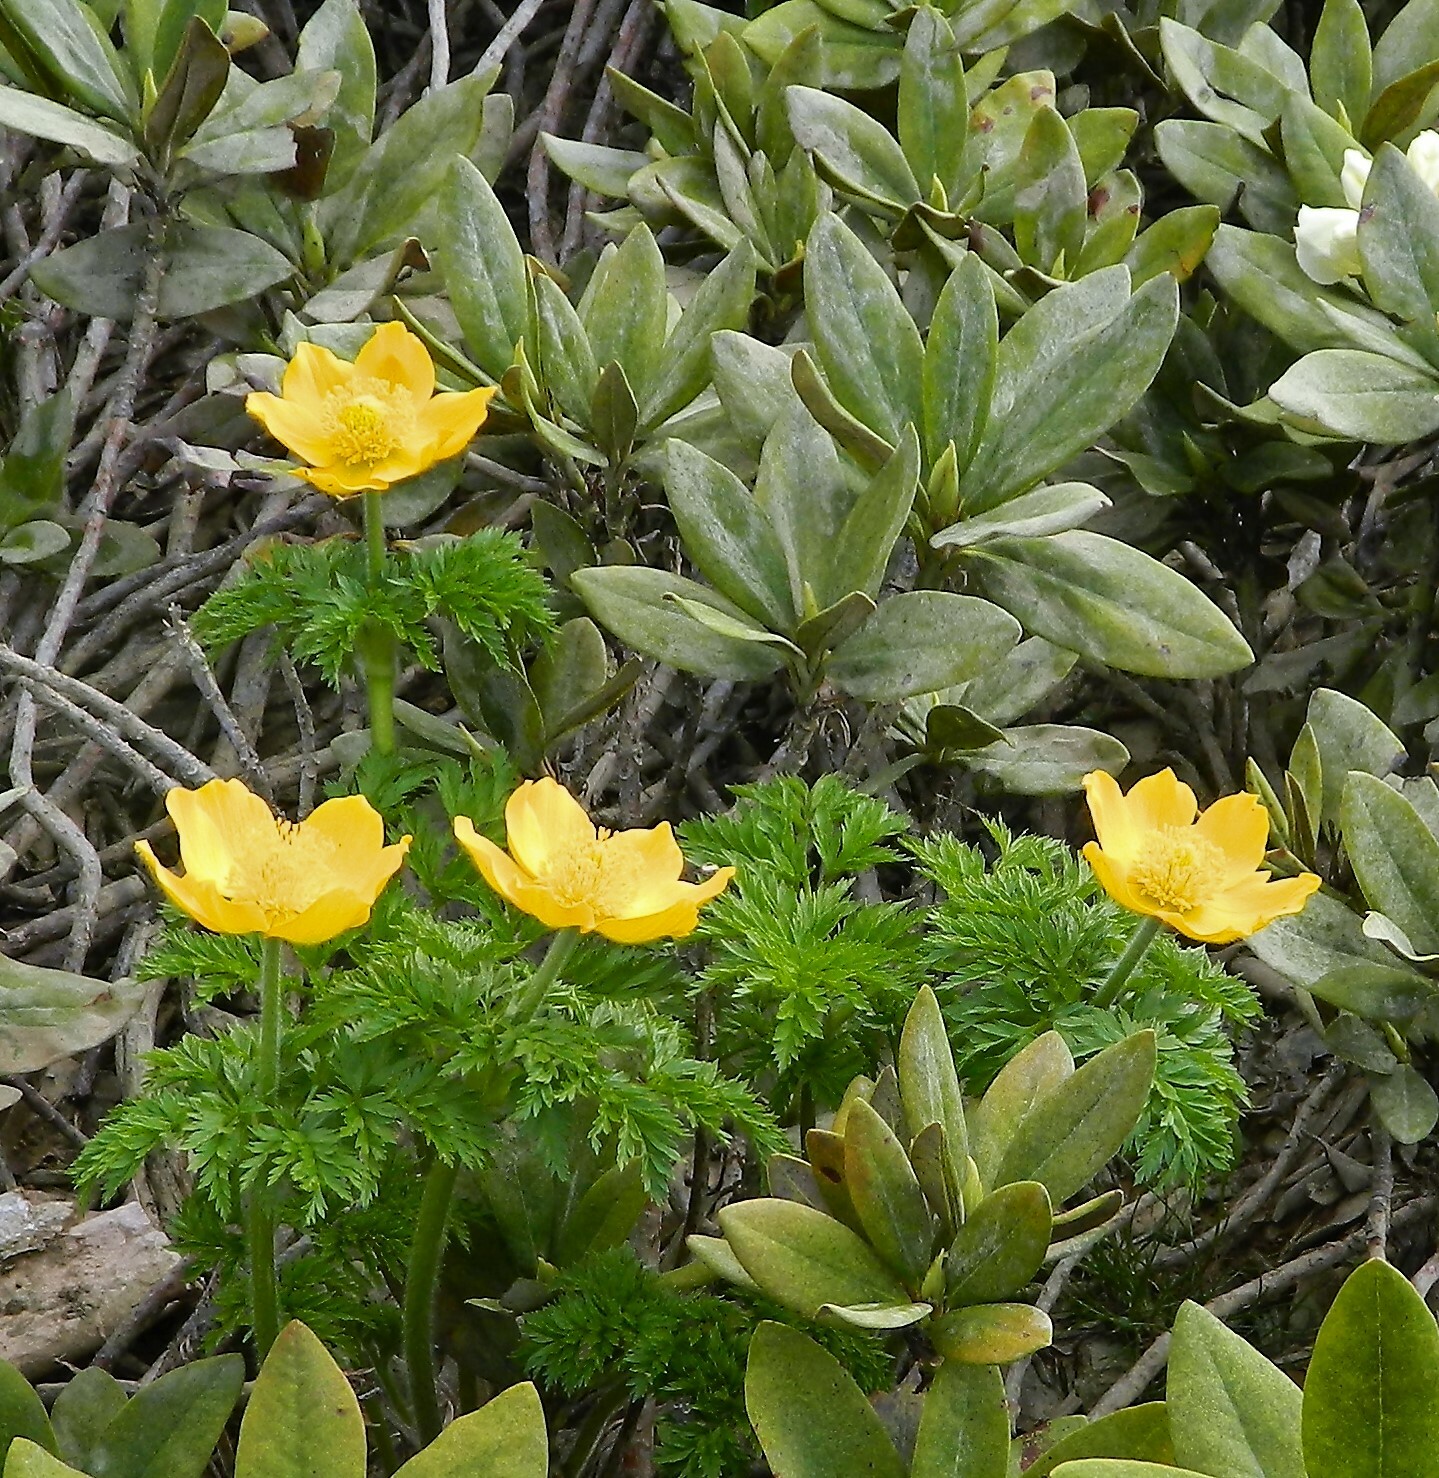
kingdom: Plantae
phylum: Tracheophyta
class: Magnoliopsida
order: Ranunculales
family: Ranunculaceae
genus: Pulsatilla
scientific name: Pulsatilla aurea
